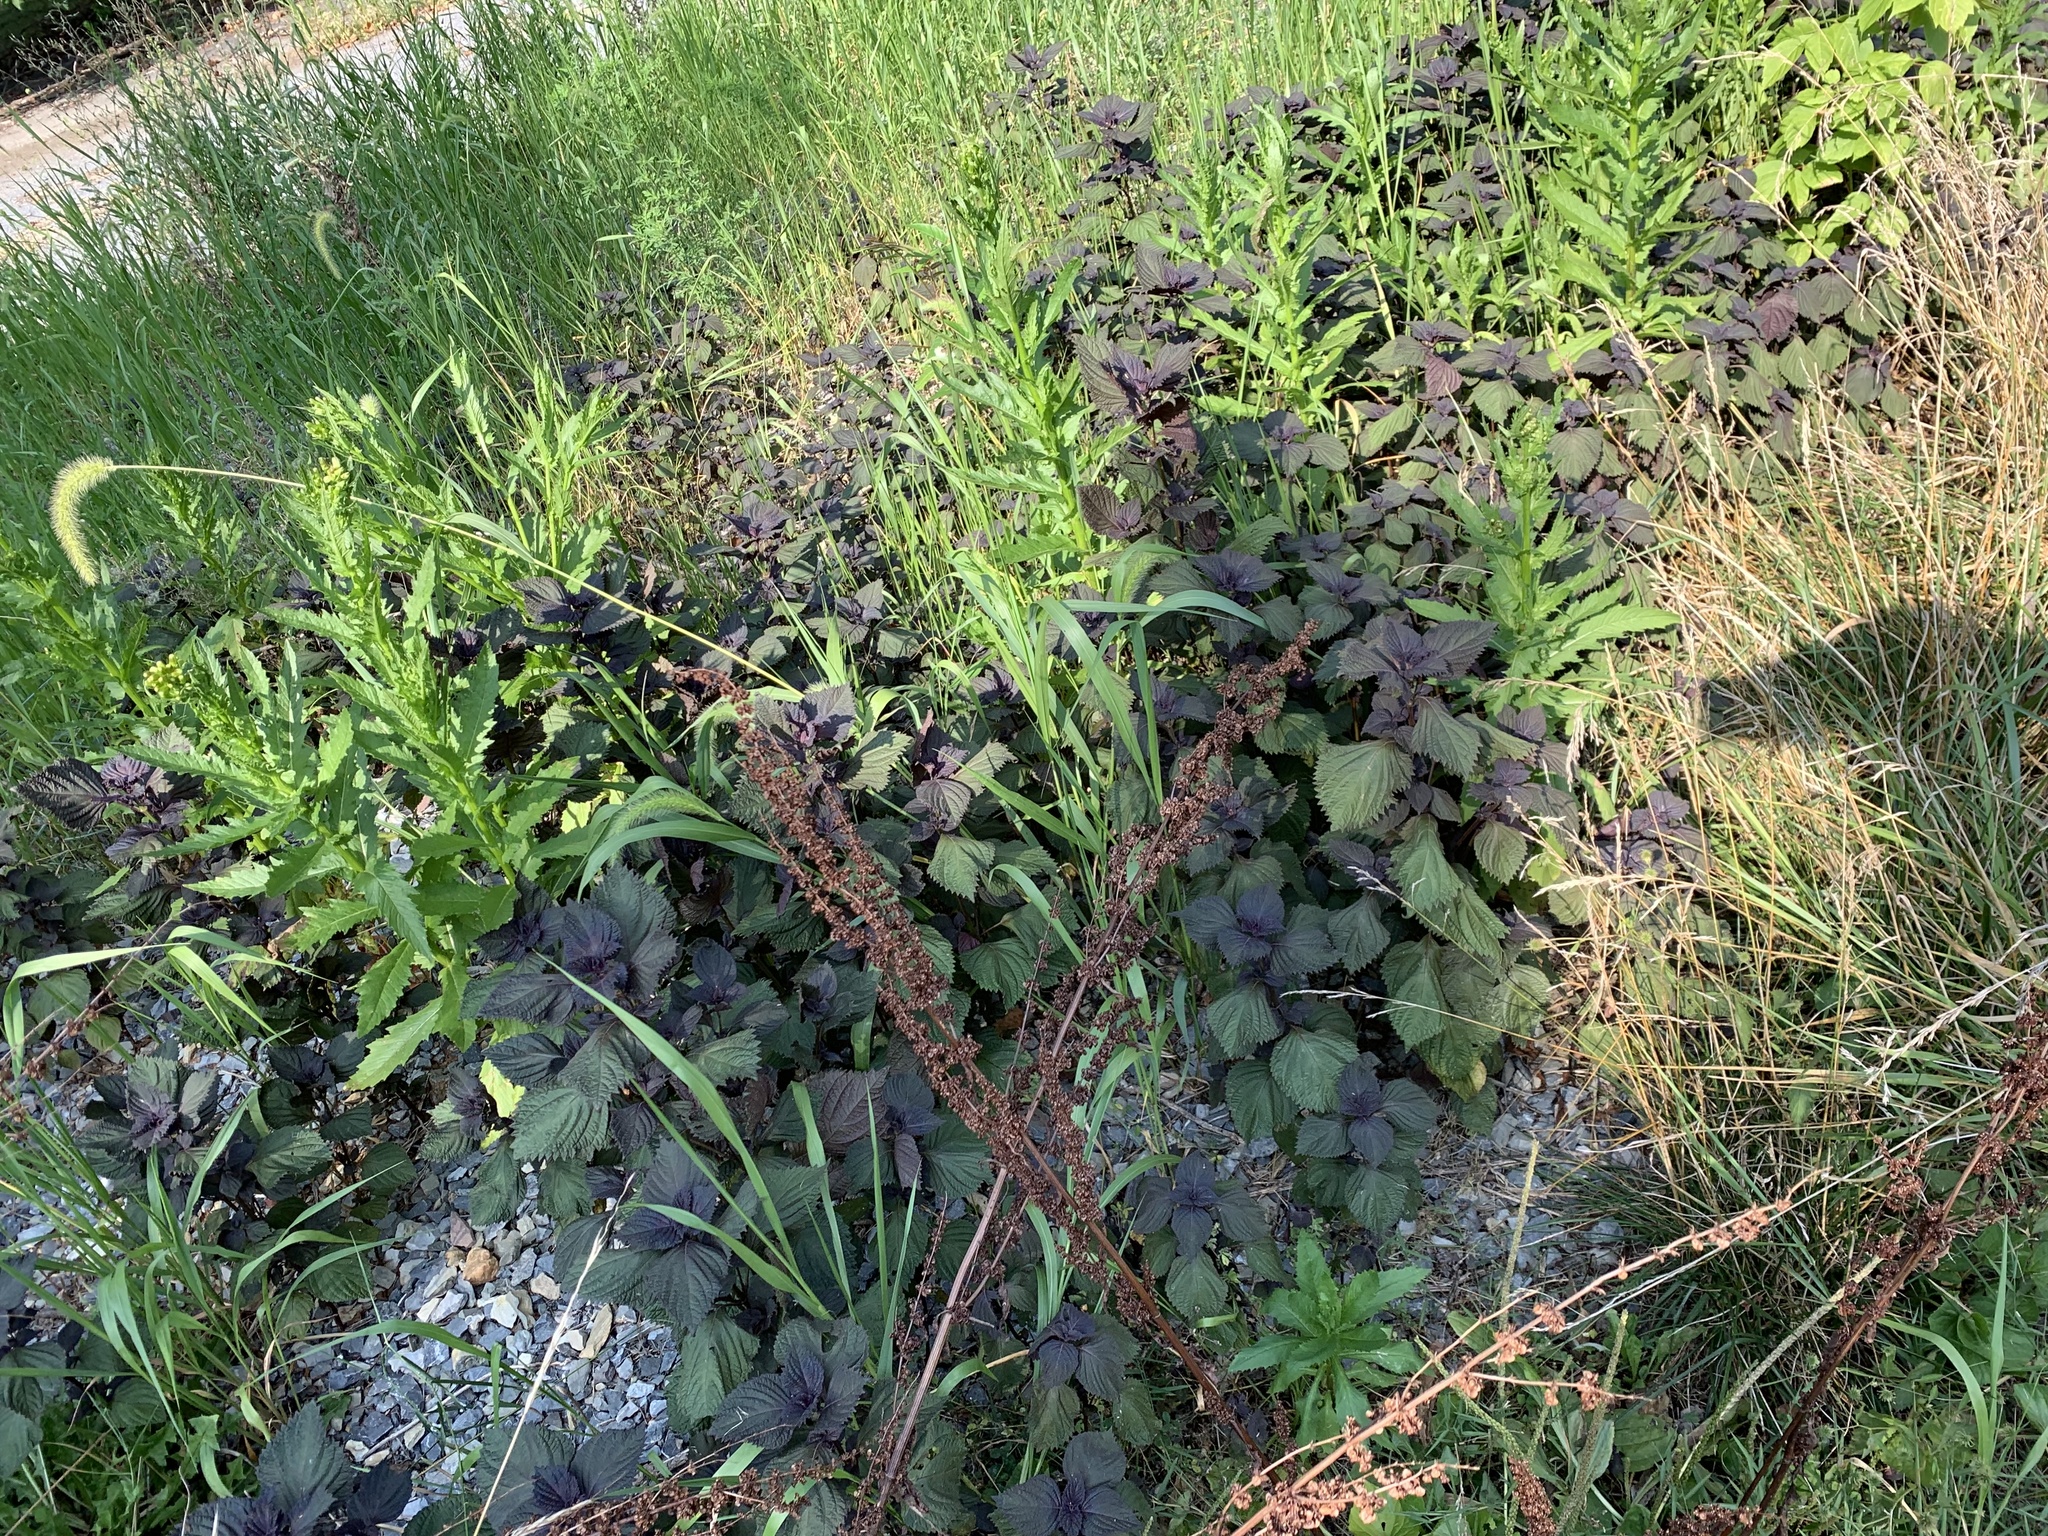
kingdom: Plantae
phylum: Tracheophyta
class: Magnoliopsida
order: Lamiales
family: Lamiaceae
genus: Perilla
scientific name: Perilla frutescens
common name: Perilla
